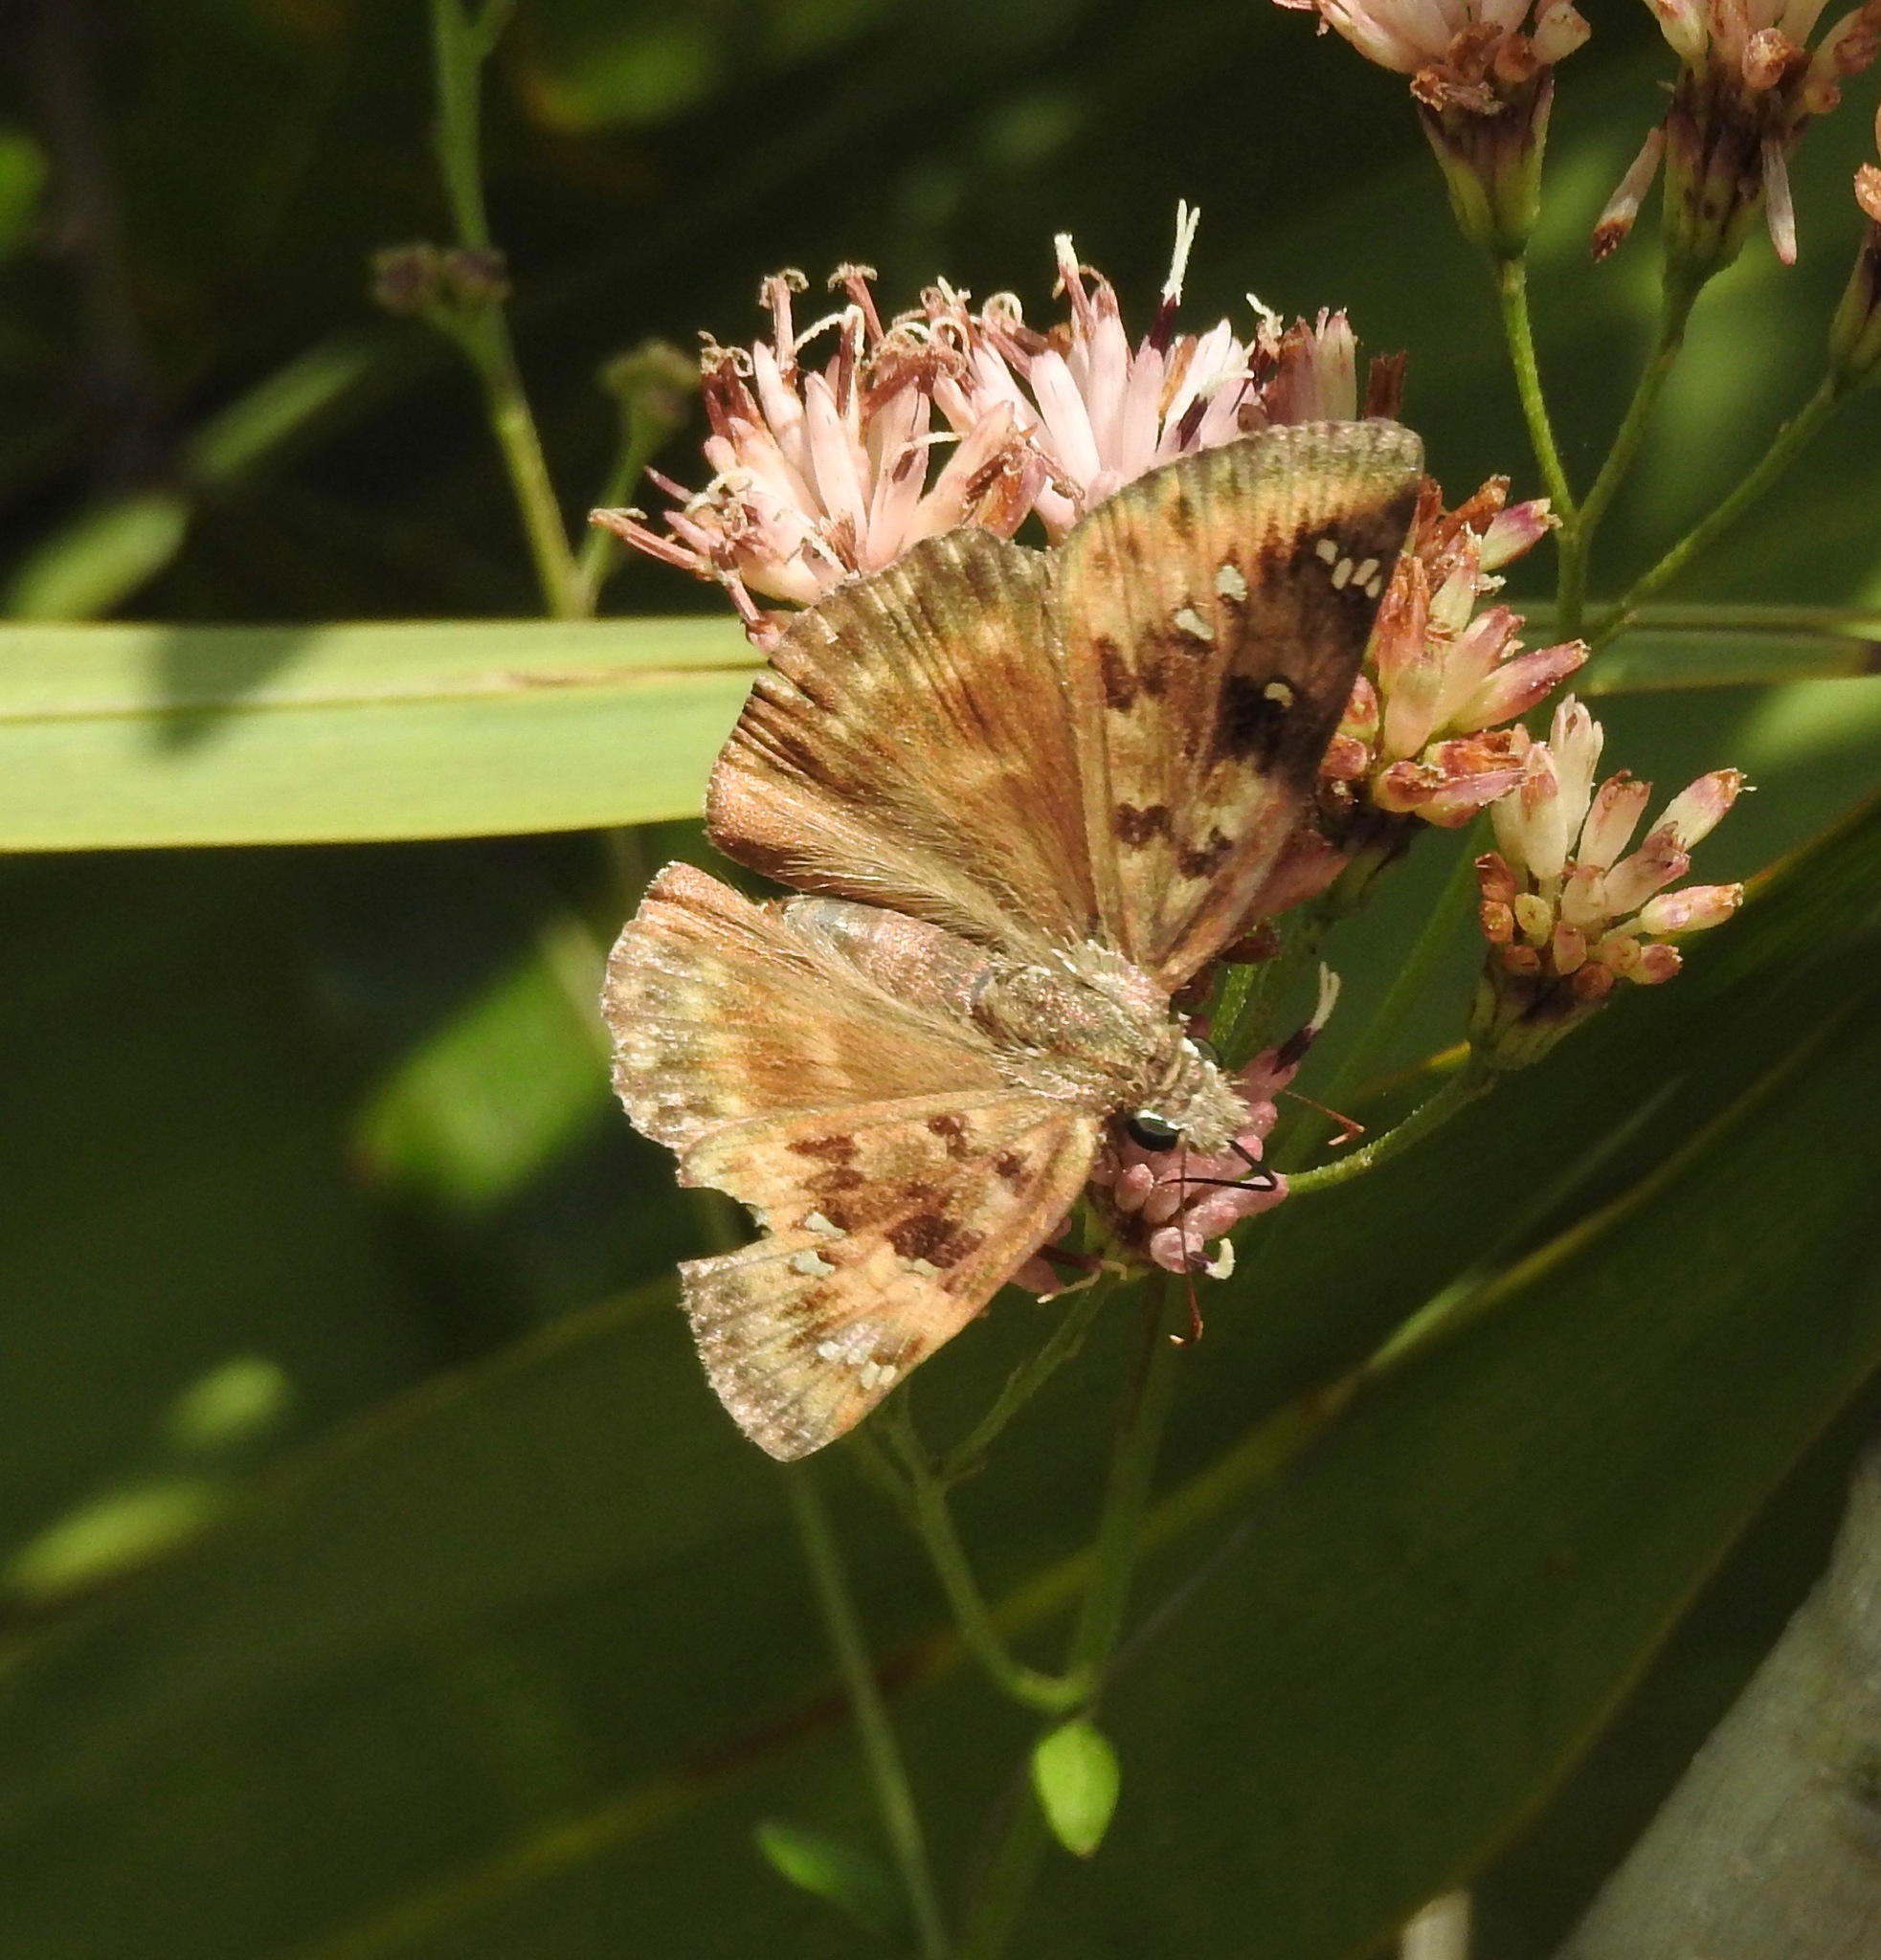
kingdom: Animalia
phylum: Arthropoda
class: Insecta
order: Lepidoptera
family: Hesperiidae
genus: Erynnis
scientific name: Erynnis horatius
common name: Horace's duskywing
